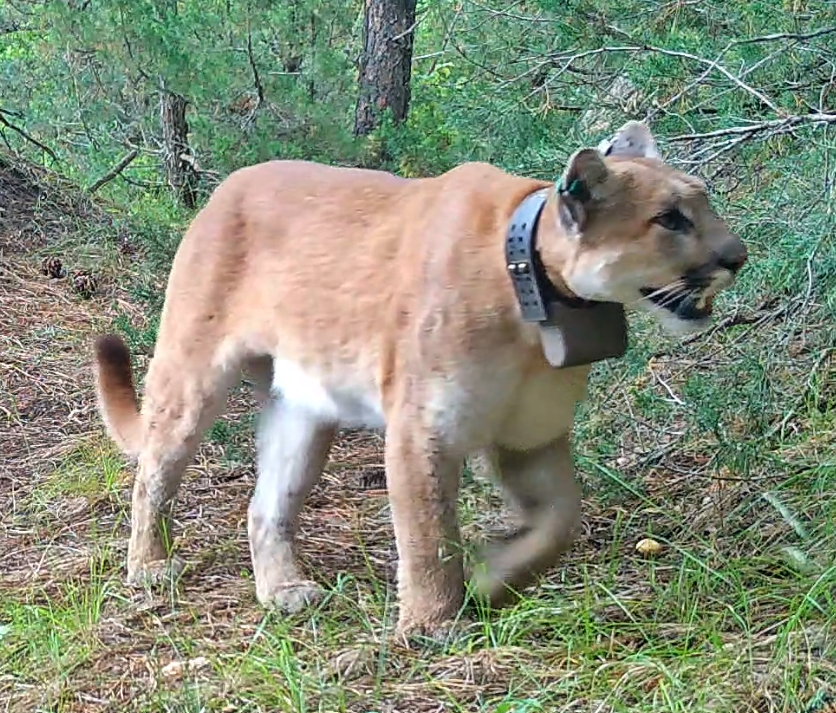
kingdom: Animalia
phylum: Chordata
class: Mammalia
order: Carnivora
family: Felidae
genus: Puma
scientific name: Puma concolor
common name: Puma
